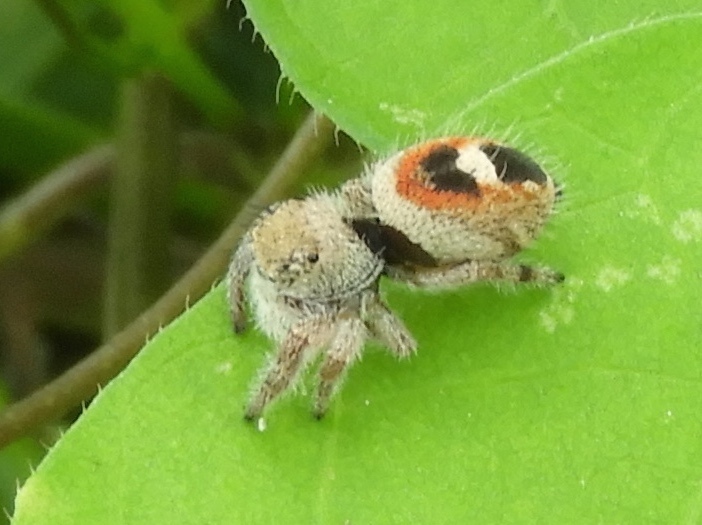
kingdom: Animalia
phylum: Arthropoda
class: Arachnida
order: Araneae
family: Salticidae
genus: Phidippus
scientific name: Phidippus pacosauritus
